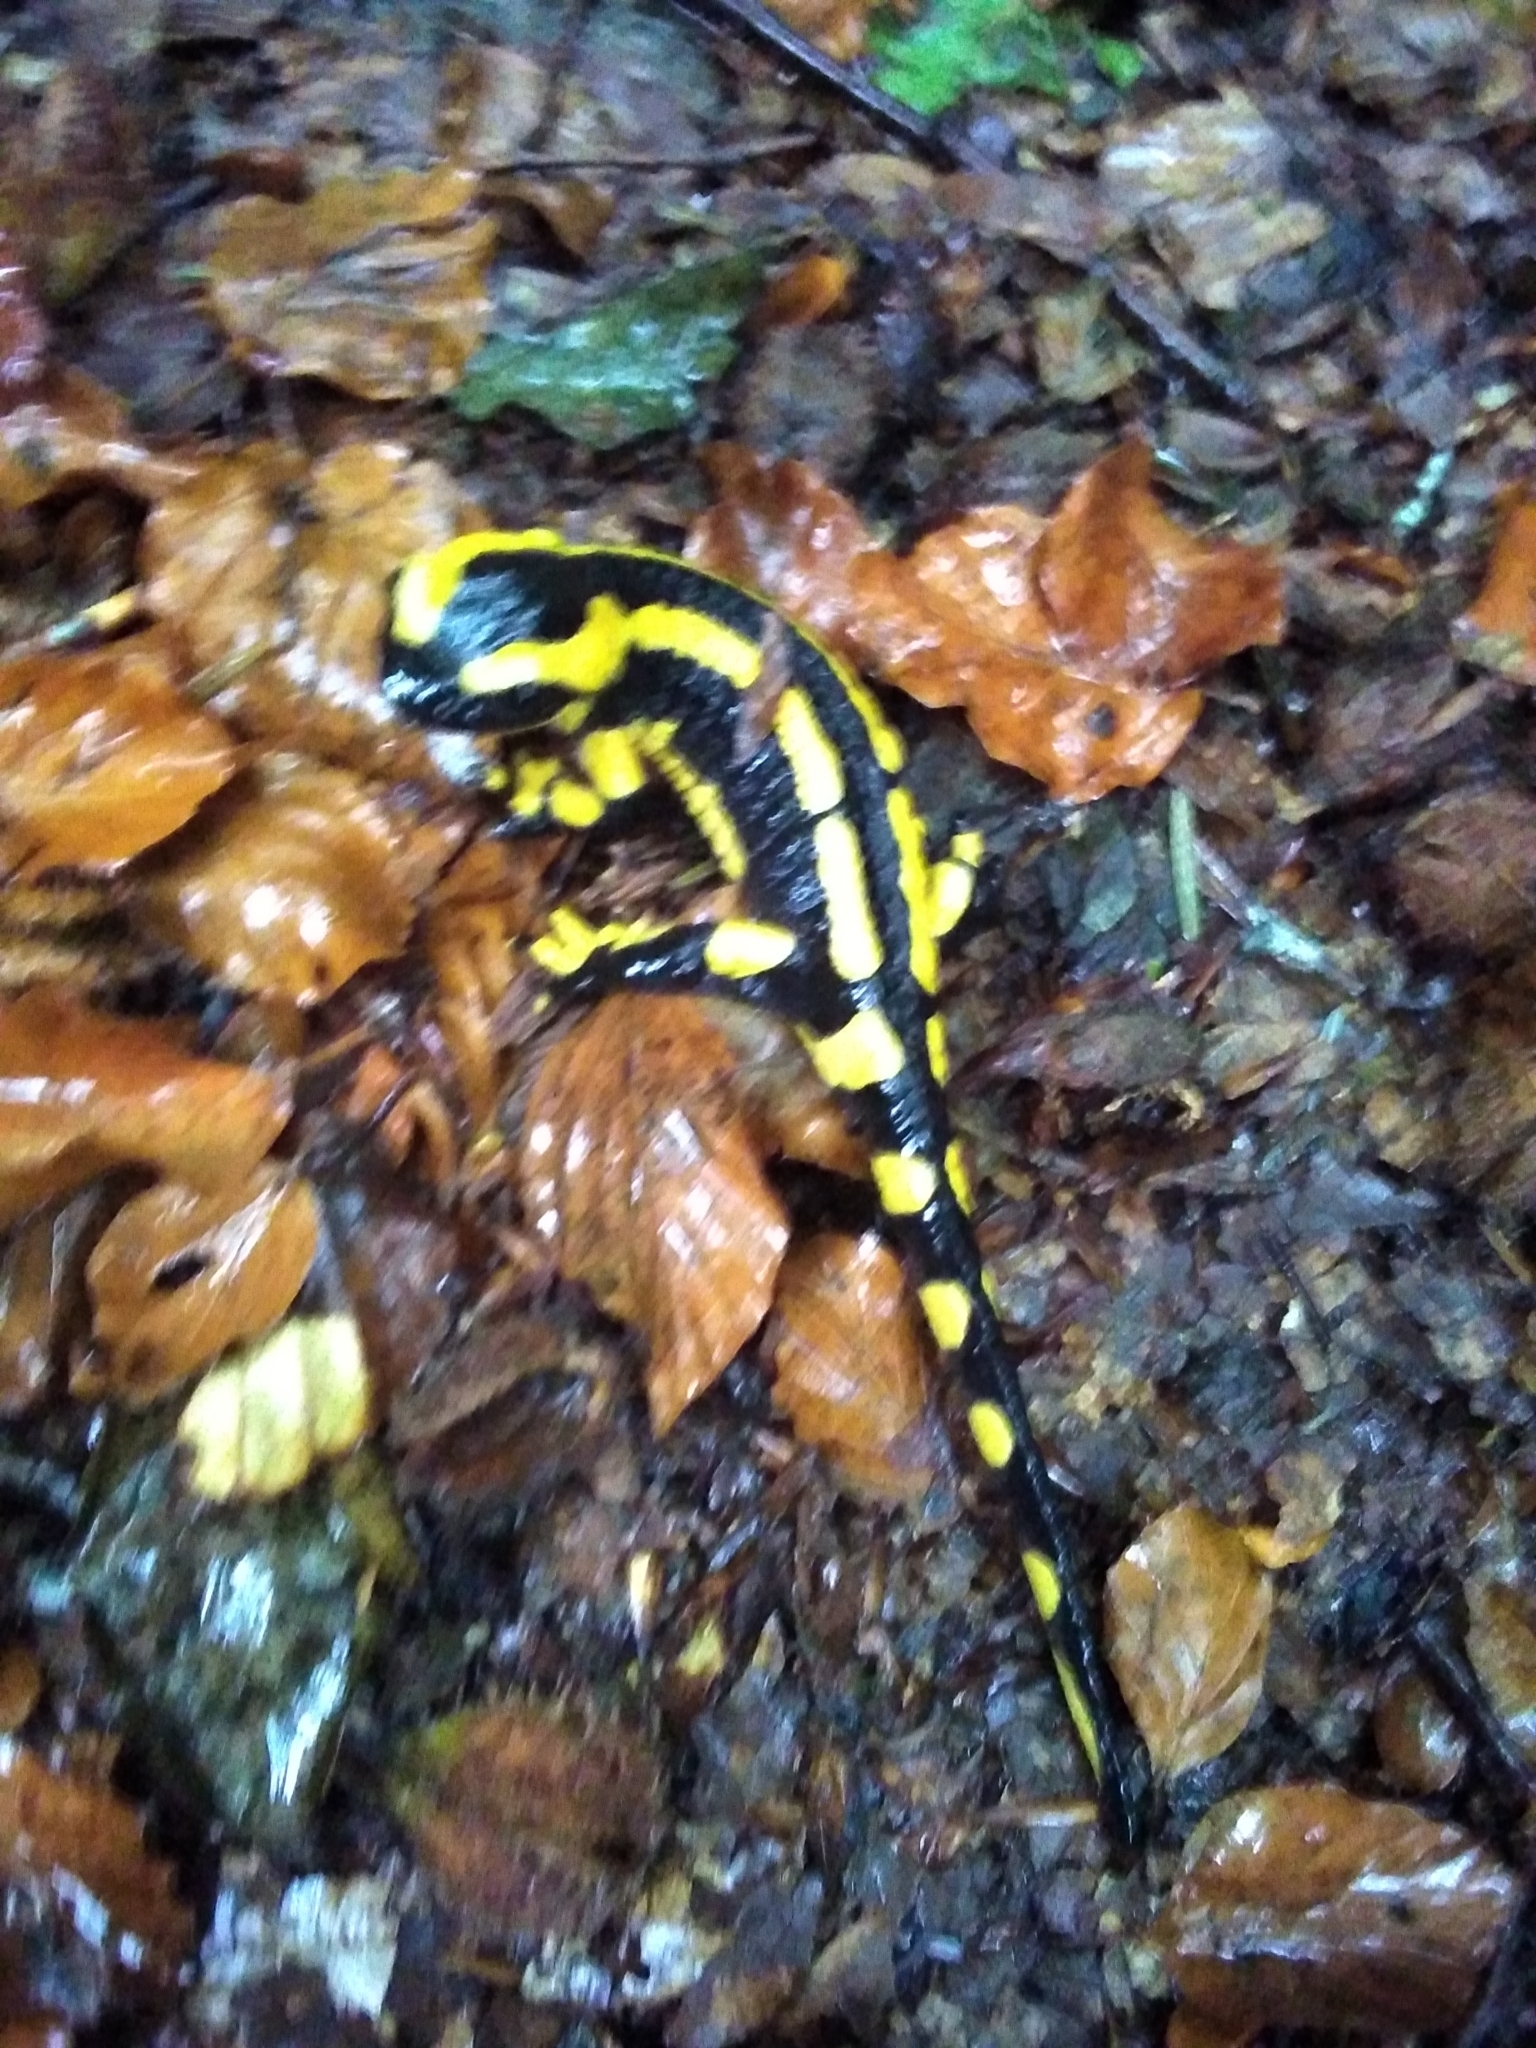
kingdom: Animalia
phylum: Chordata
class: Amphibia
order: Caudata
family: Salamandridae
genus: Salamandra
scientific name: Salamandra salamandra
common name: Fire salamander
